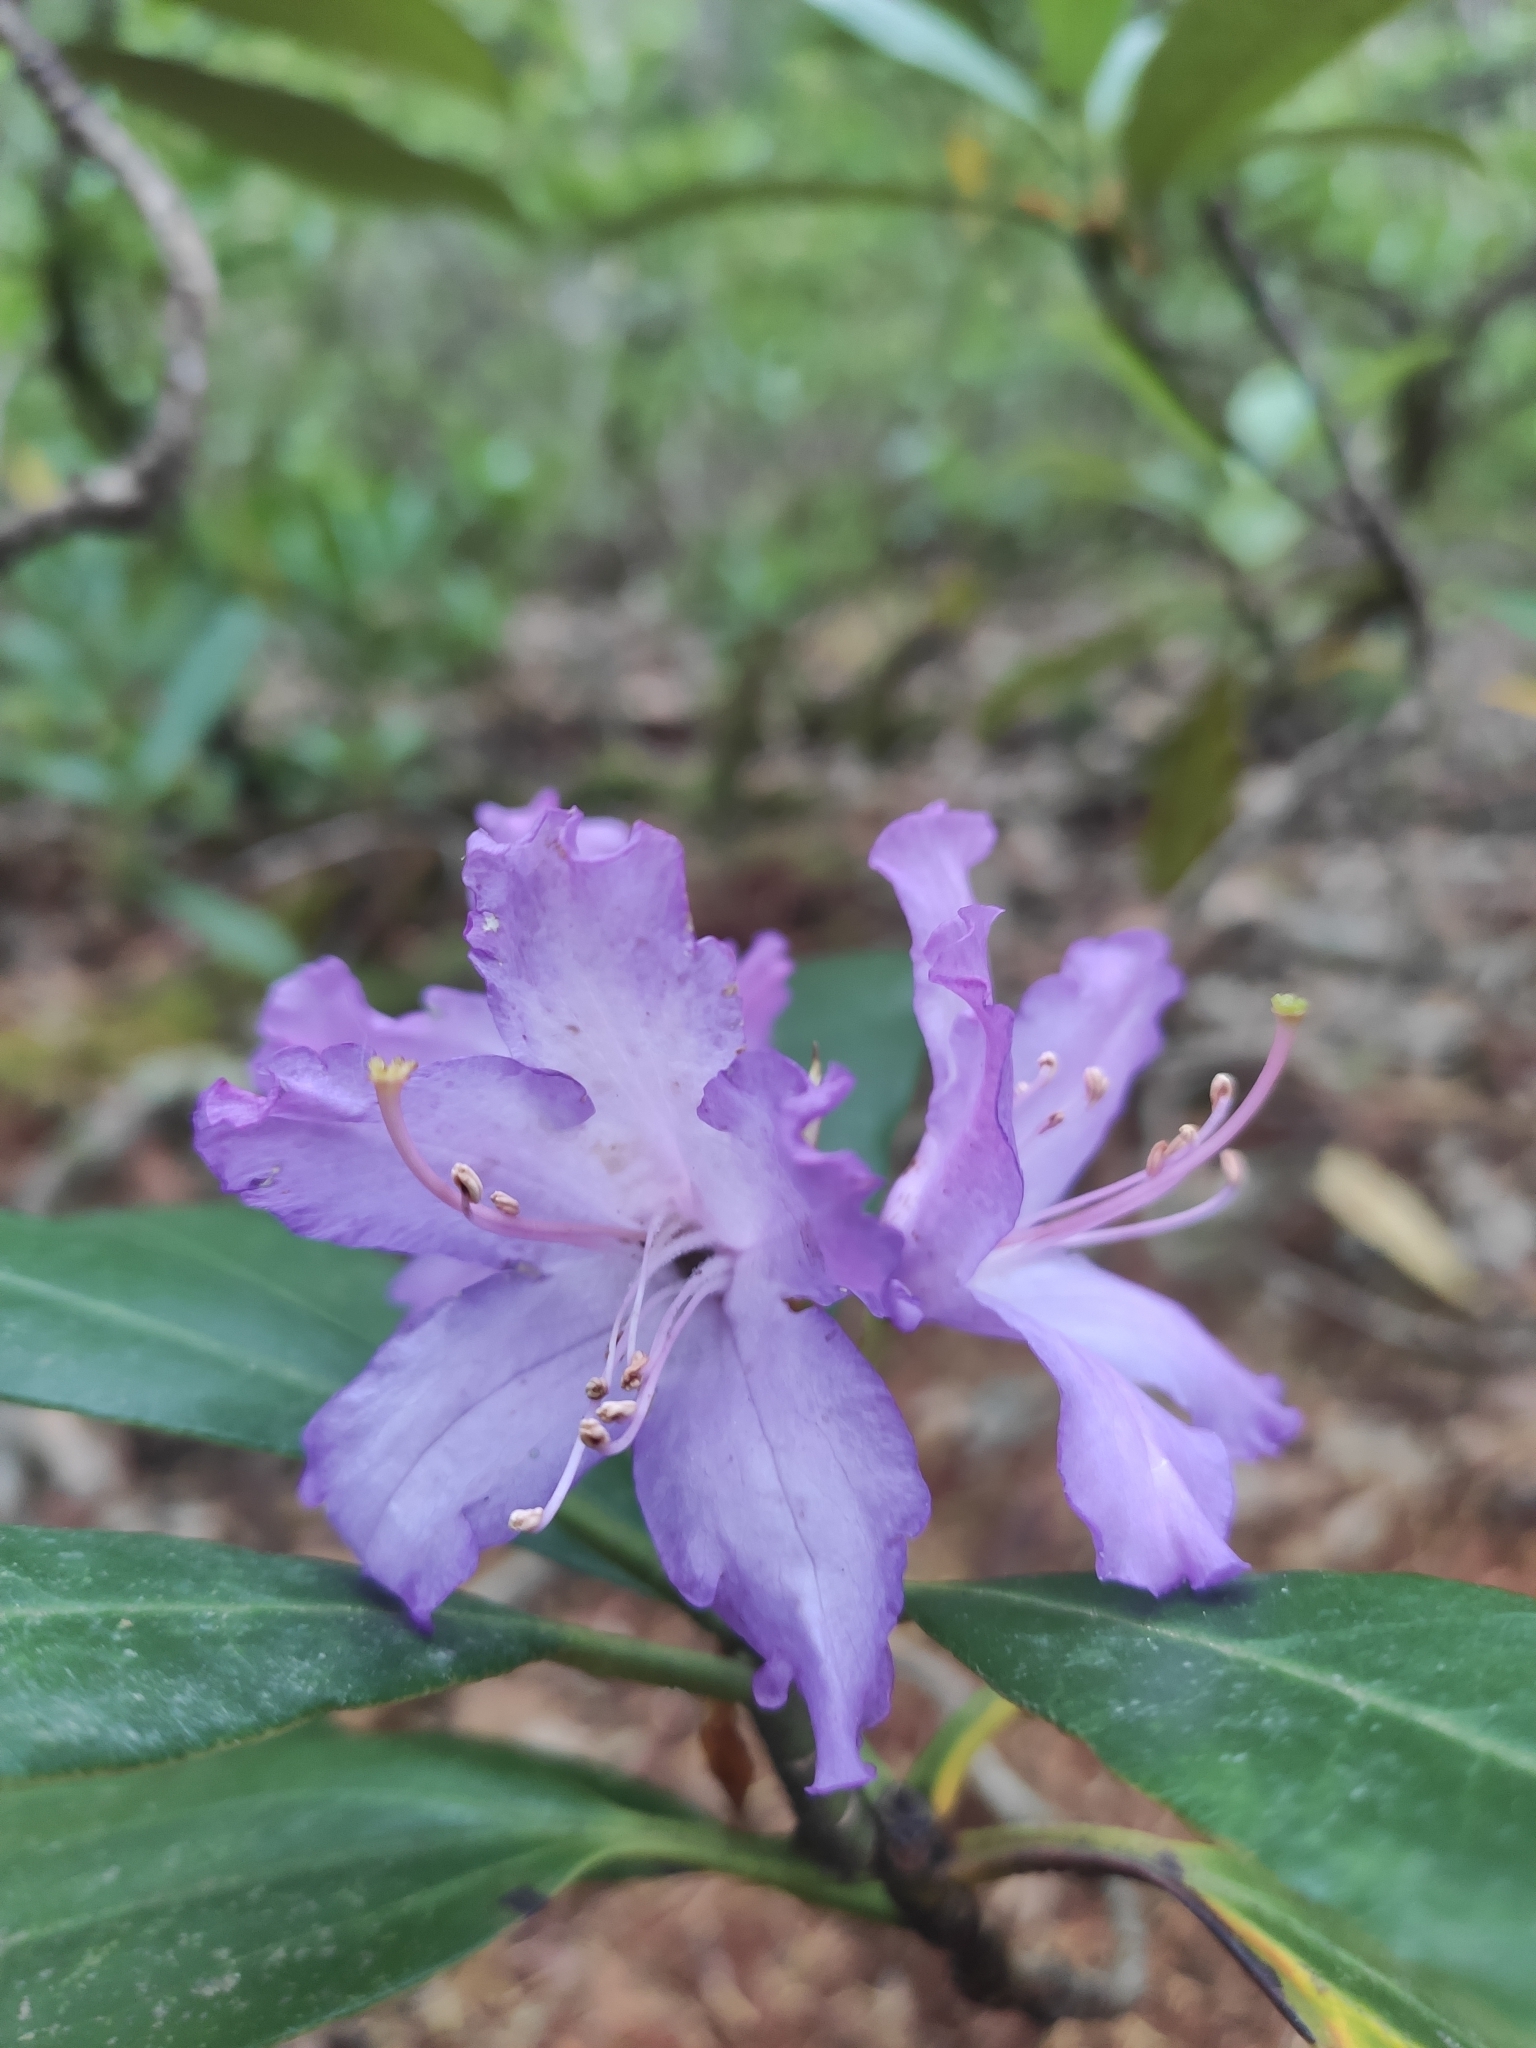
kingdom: Plantae
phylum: Tracheophyta
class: Magnoliopsida
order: Ericales
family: Ericaceae
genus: Rhododendron
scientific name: Rhododendron ponticum
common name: Rhododendron
